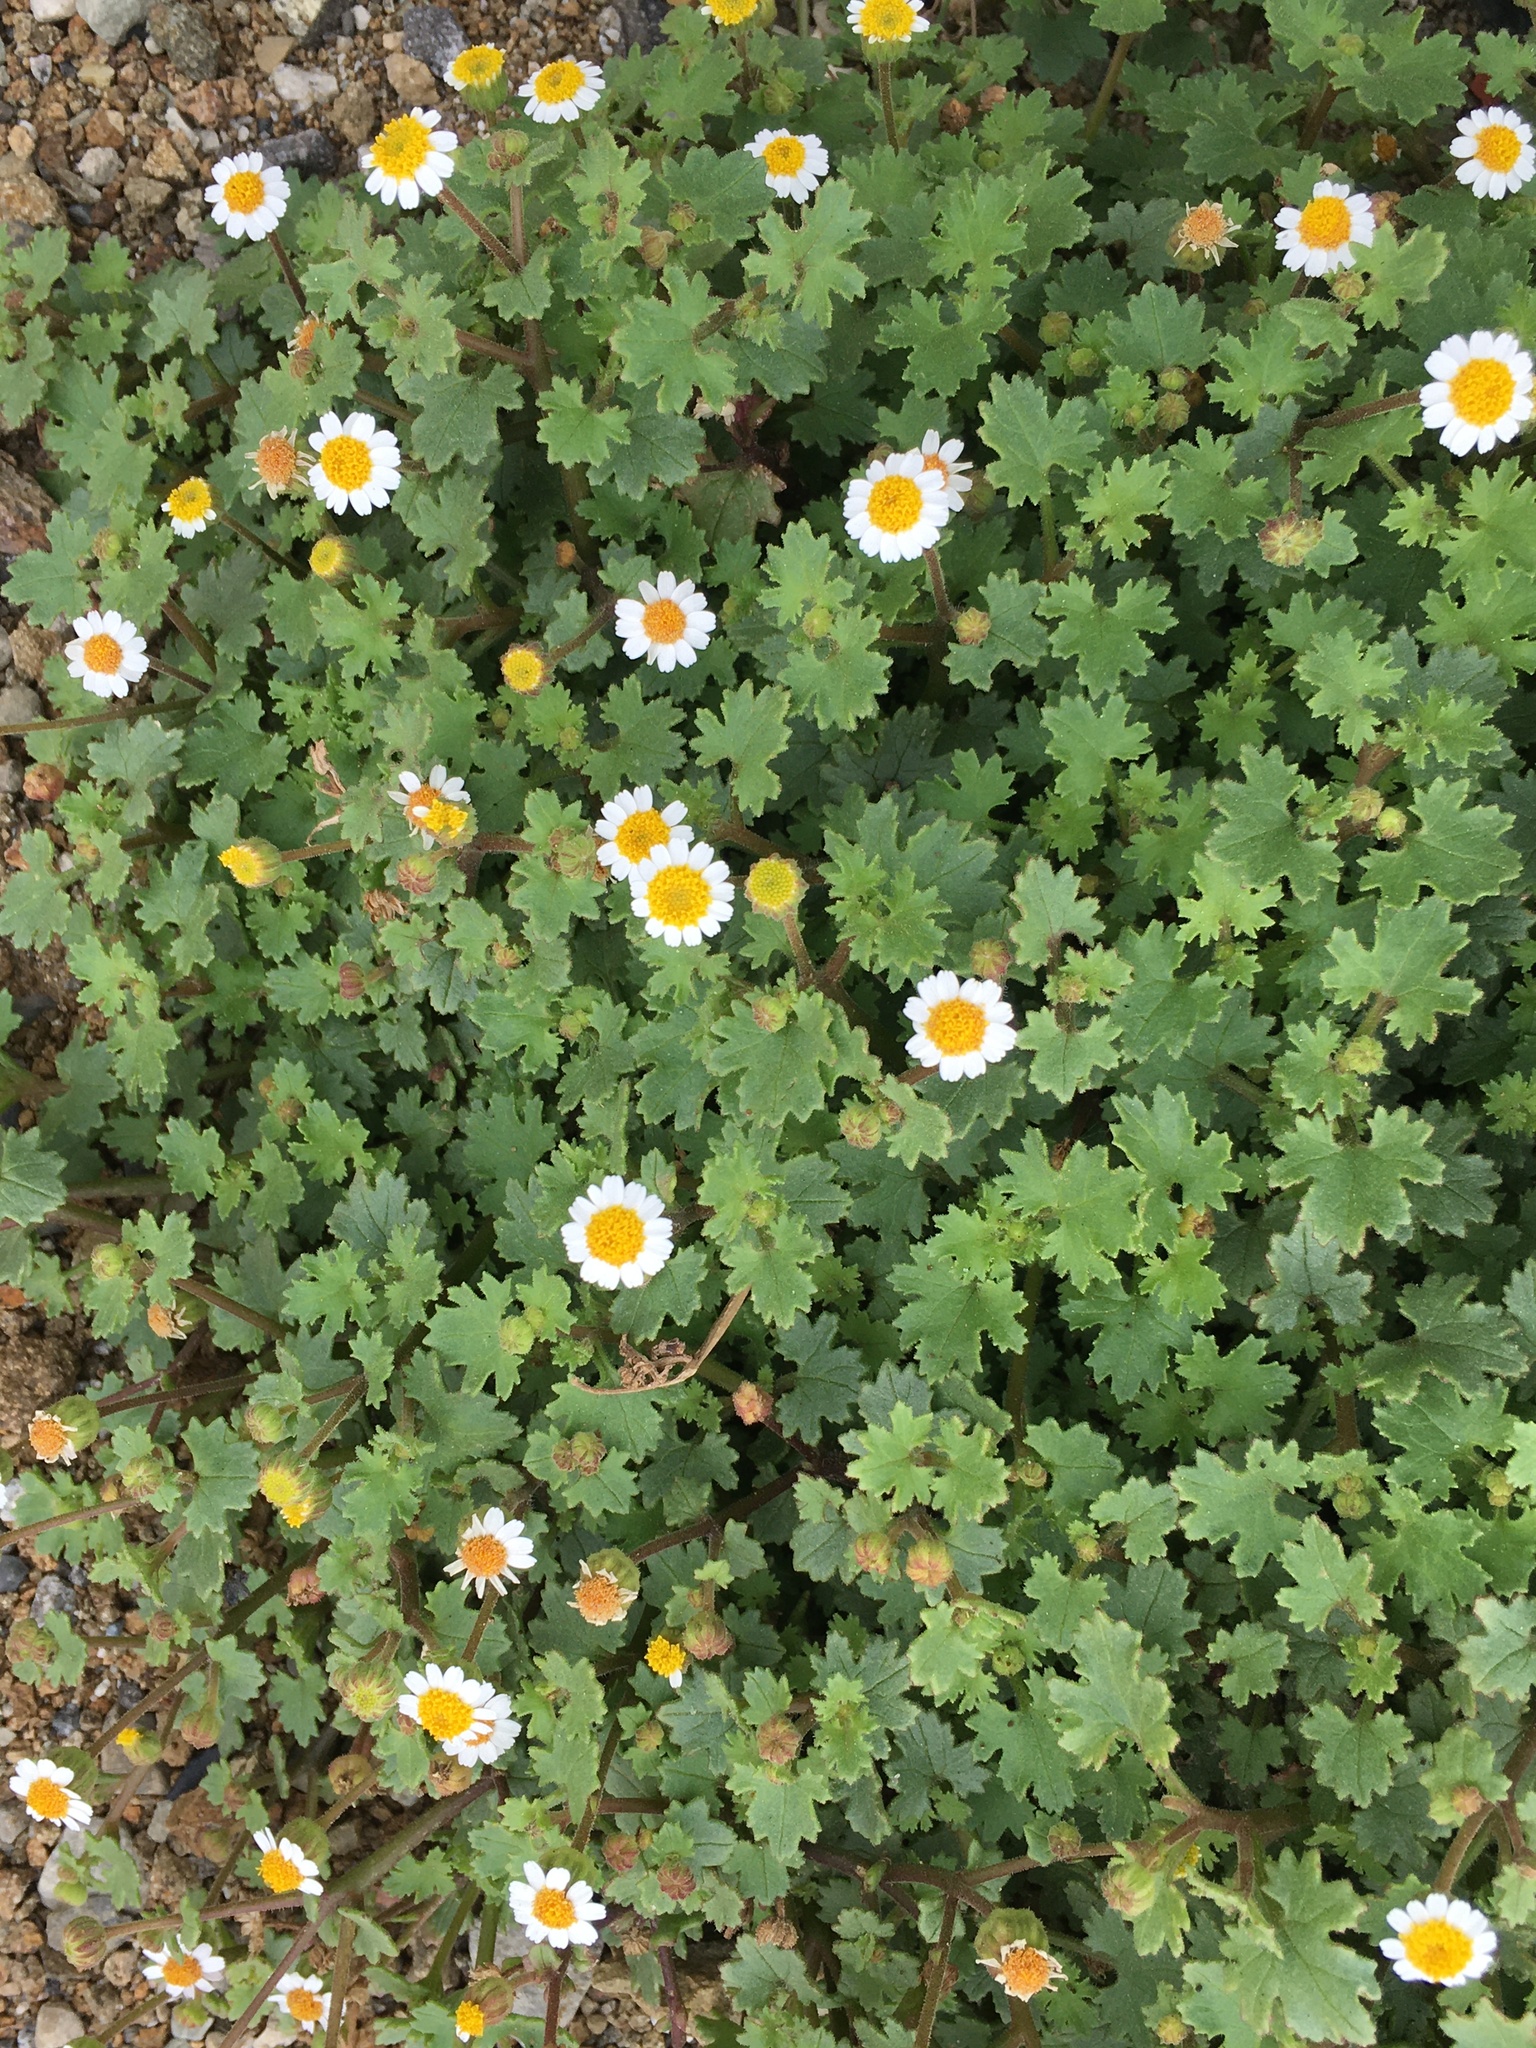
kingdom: Plantae
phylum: Tracheophyta
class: Magnoliopsida
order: Asterales
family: Asteraceae
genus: Laphamia
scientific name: Laphamia emoryi
